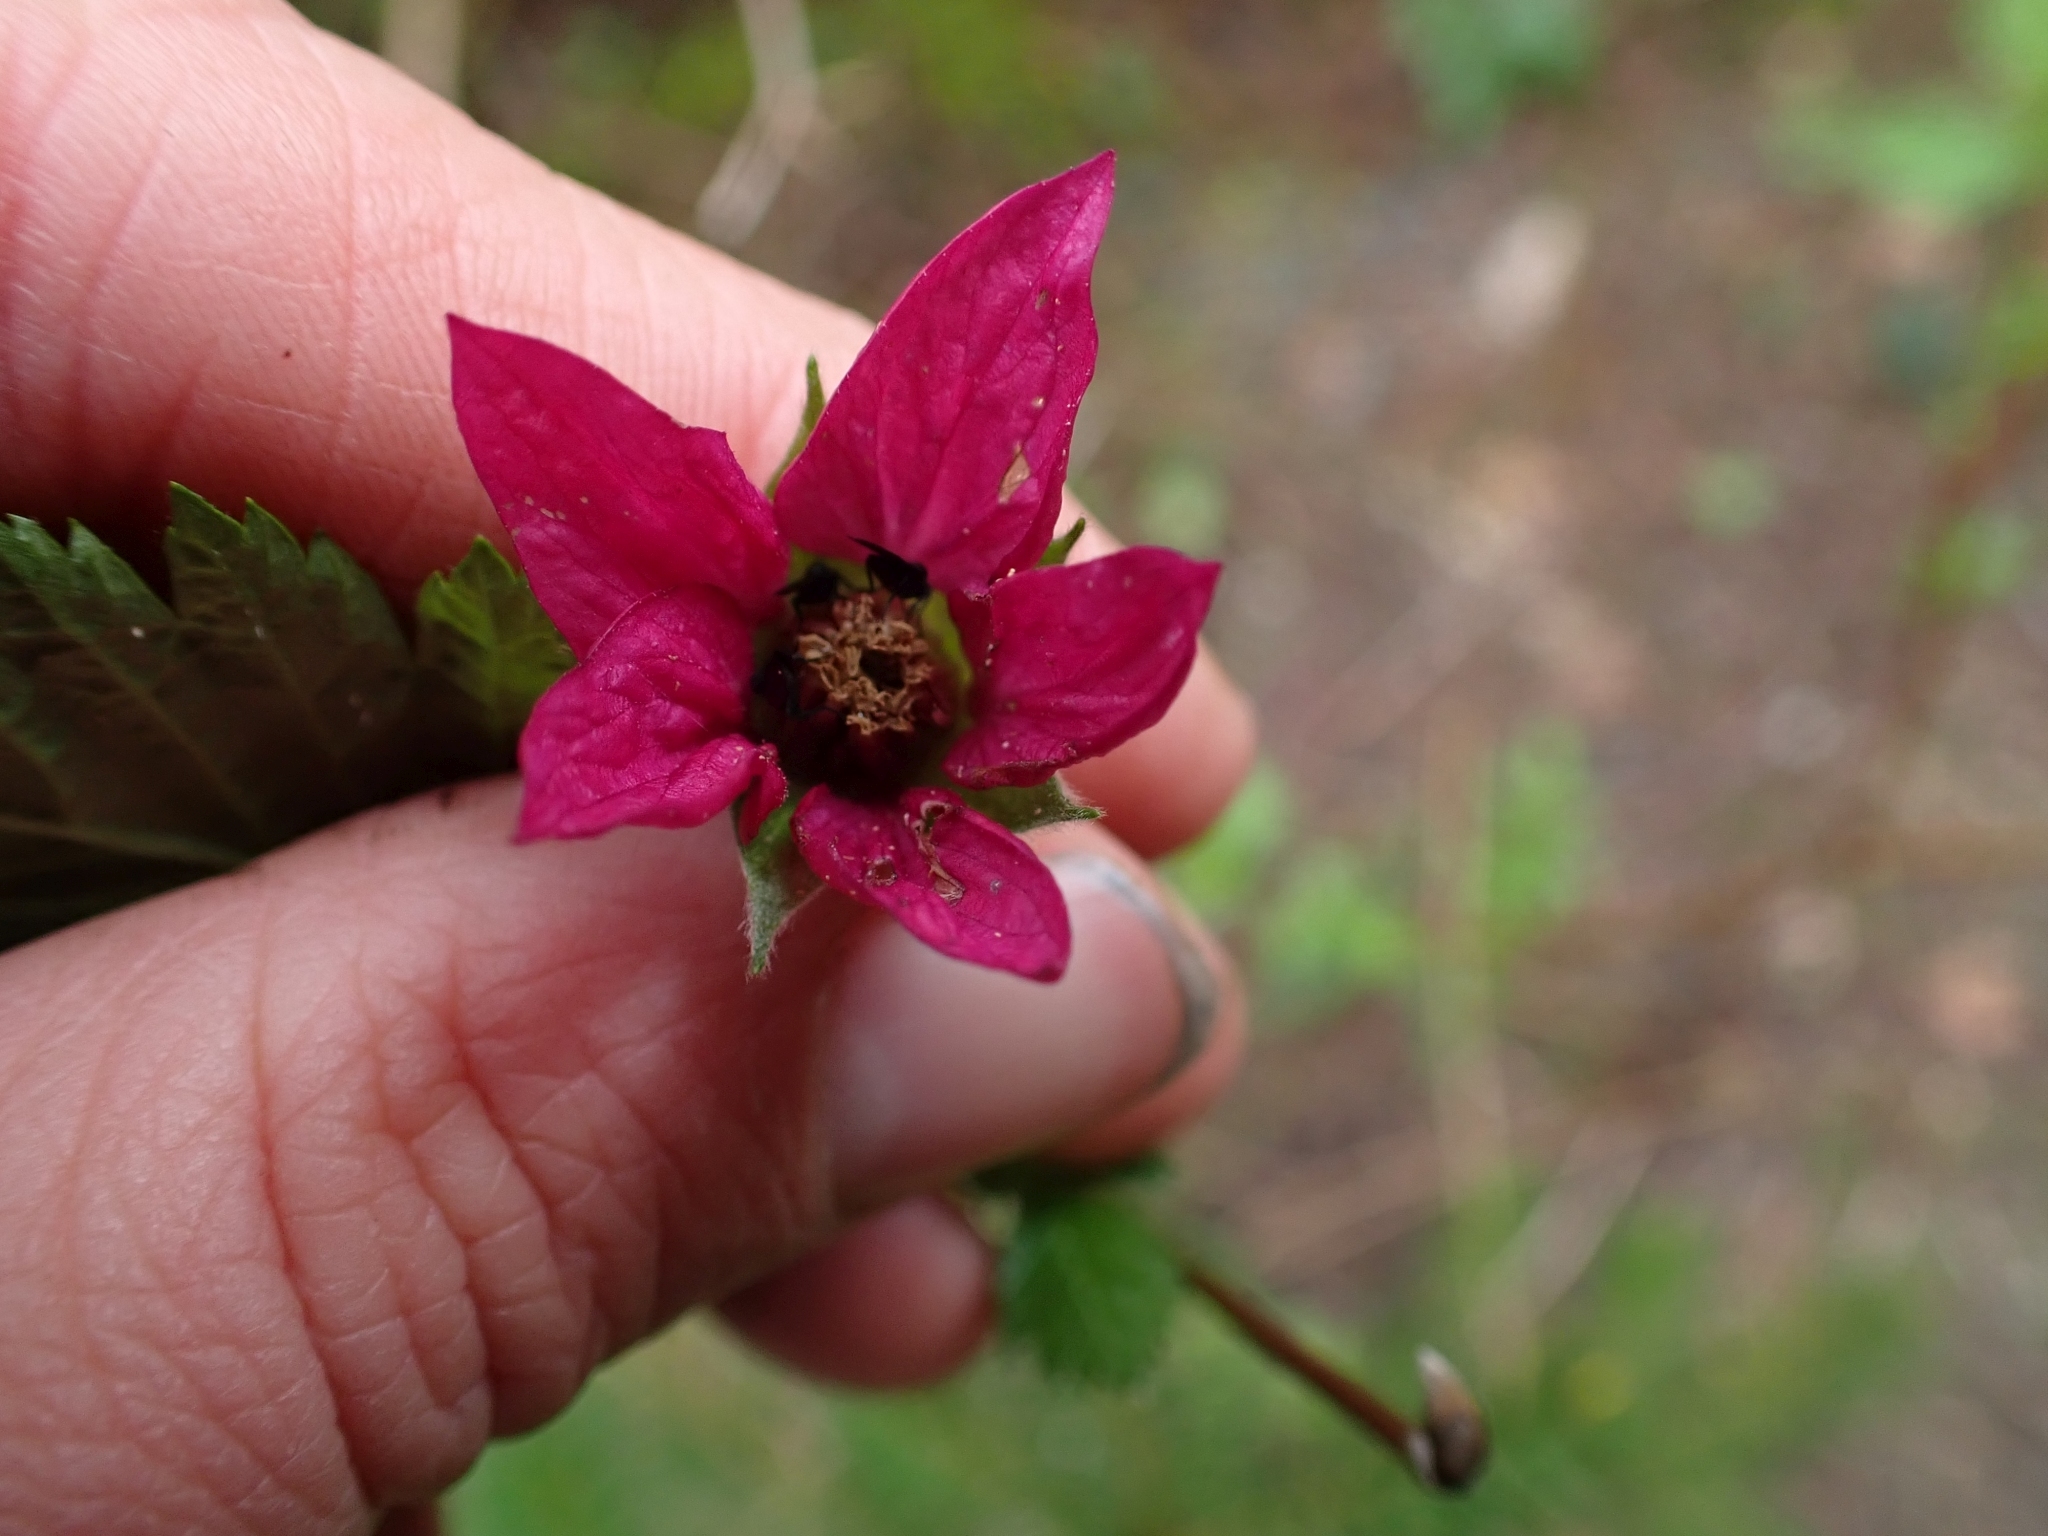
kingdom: Plantae
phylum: Tracheophyta
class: Magnoliopsida
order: Rosales
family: Rosaceae
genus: Rubus
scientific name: Rubus spectabilis
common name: Salmonberry
